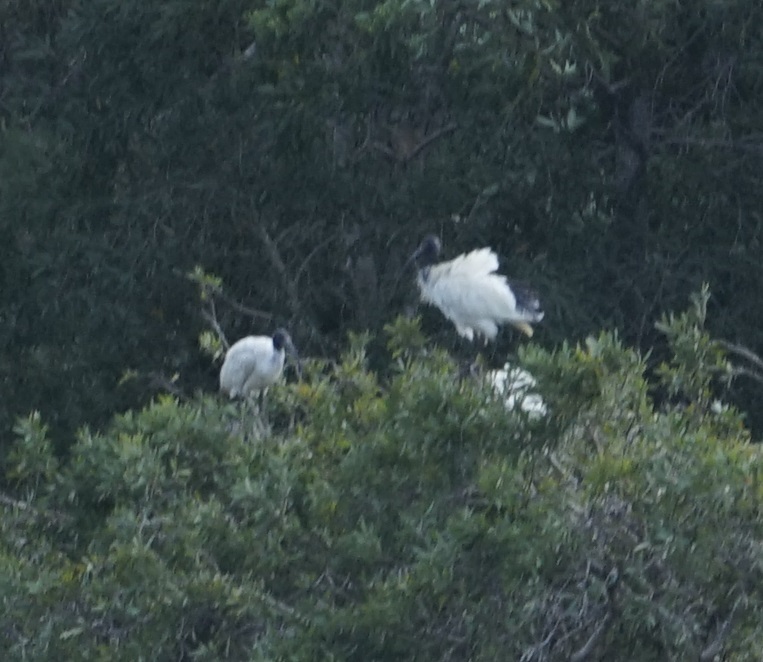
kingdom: Animalia
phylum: Chordata
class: Aves
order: Pelecaniformes
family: Threskiornithidae
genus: Threskiornis
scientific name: Threskiornis molucca
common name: Australian white ibis
